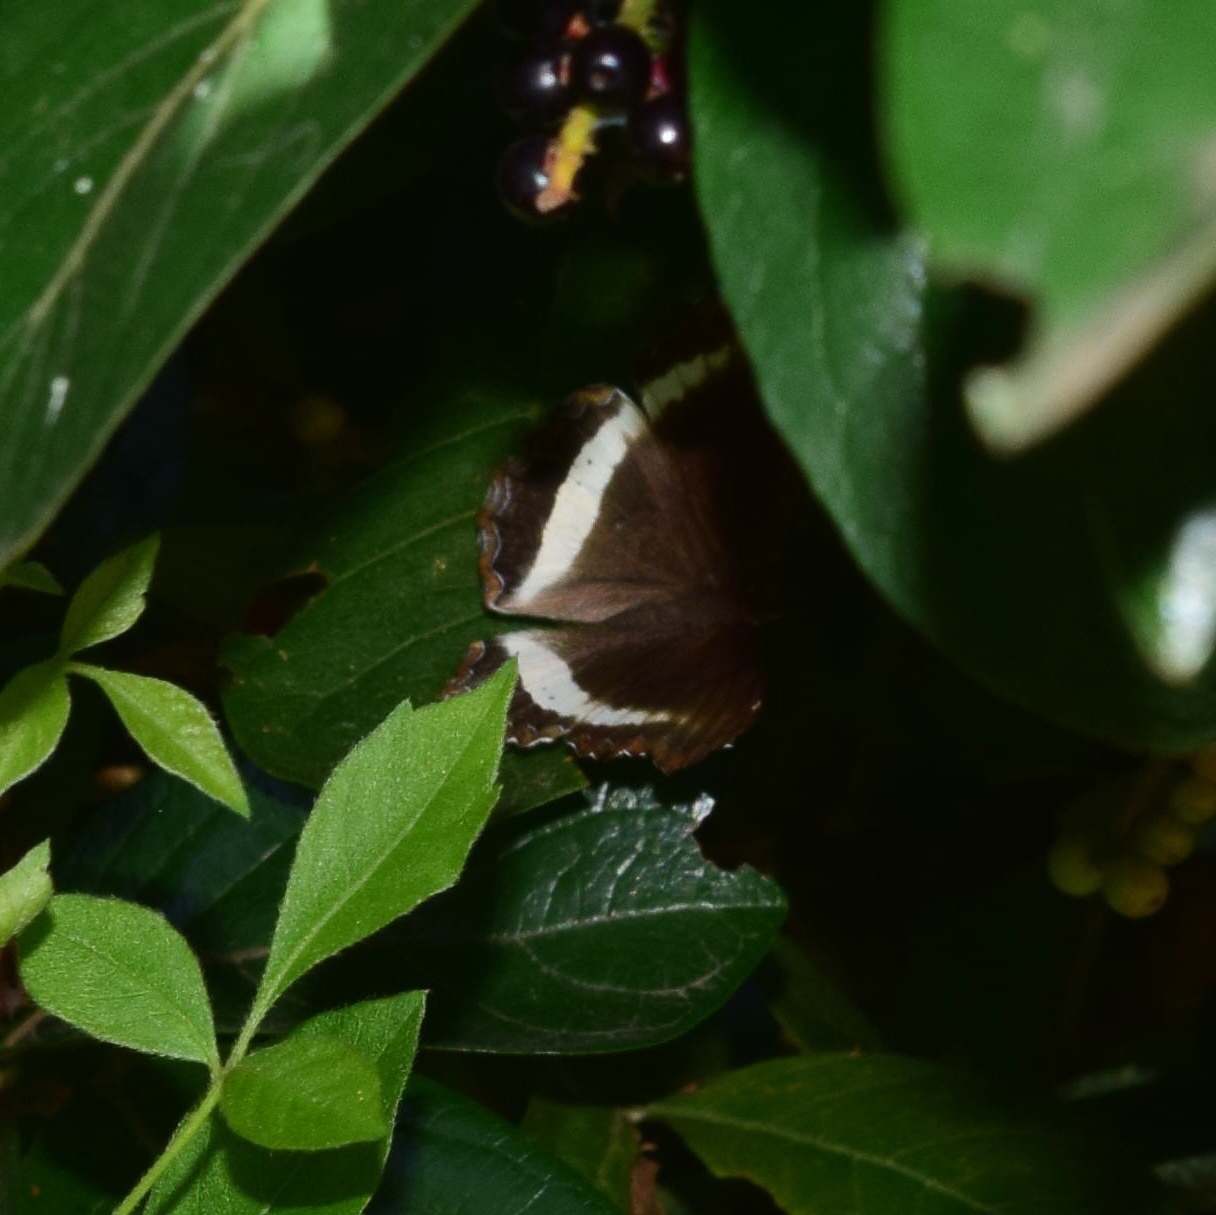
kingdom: Animalia
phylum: Arthropoda
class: Insecta
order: Lepidoptera
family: Nymphalidae
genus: Eurytela
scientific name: Eurytela hiarbas
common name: Pied piper
